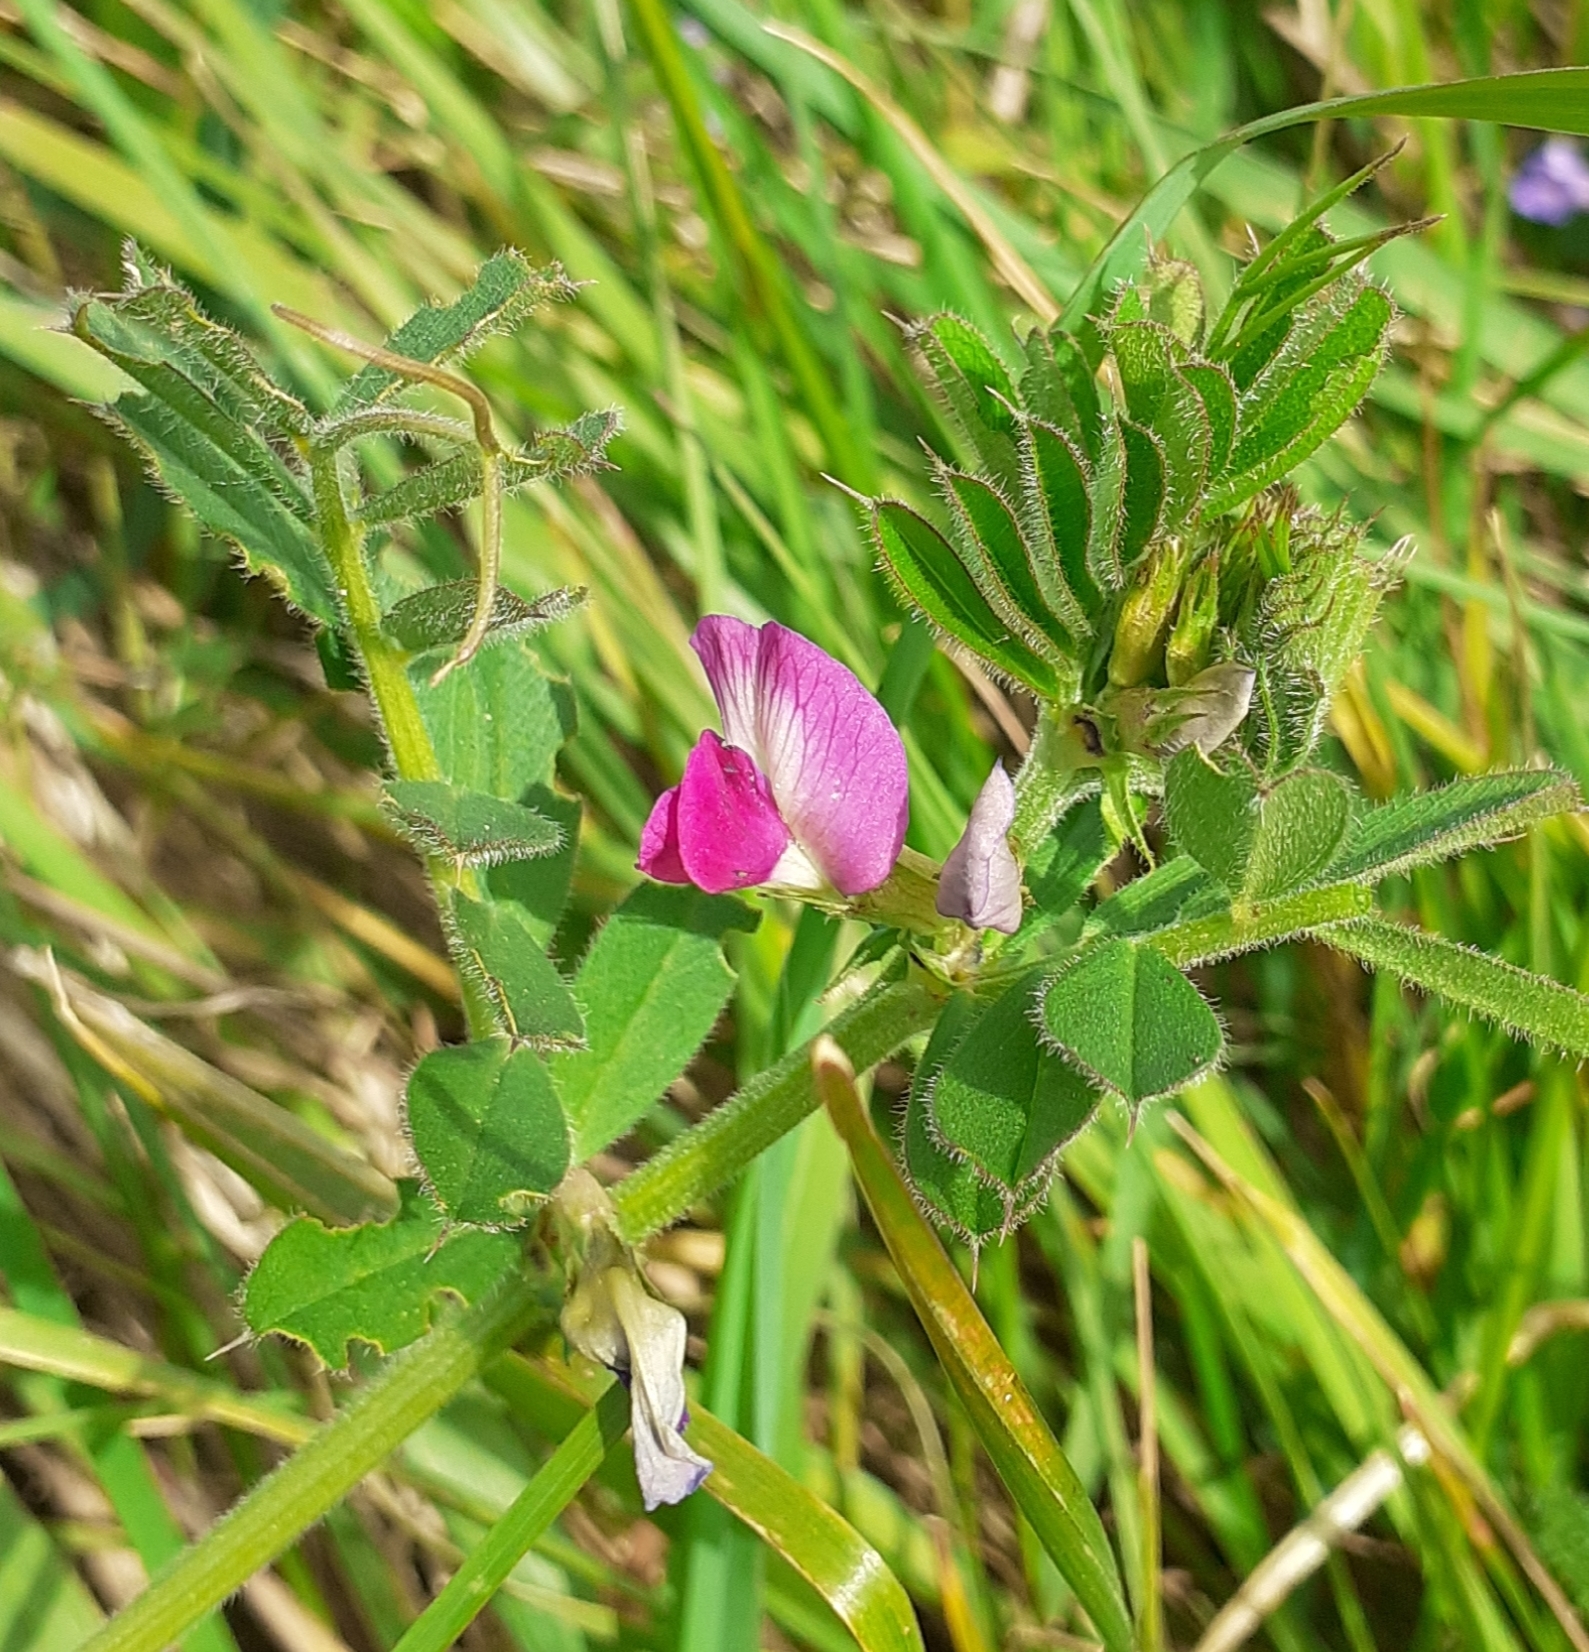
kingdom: Plantae
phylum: Tracheophyta
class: Magnoliopsida
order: Fabales
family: Fabaceae
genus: Vicia
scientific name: Vicia sativa
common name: Garden vetch
